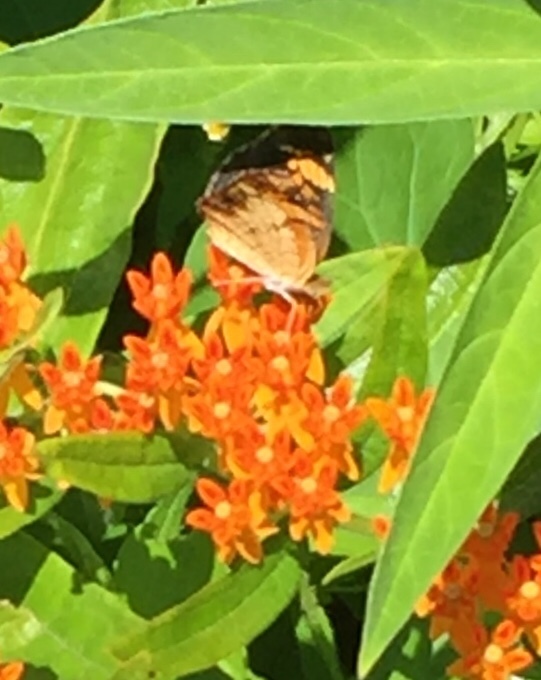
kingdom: Animalia
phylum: Arthropoda
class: Insecta
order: Lepidoptera
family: Nymphalidae
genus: Phyciodes
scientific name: Phyciodes tharos
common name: Pearl crescent
